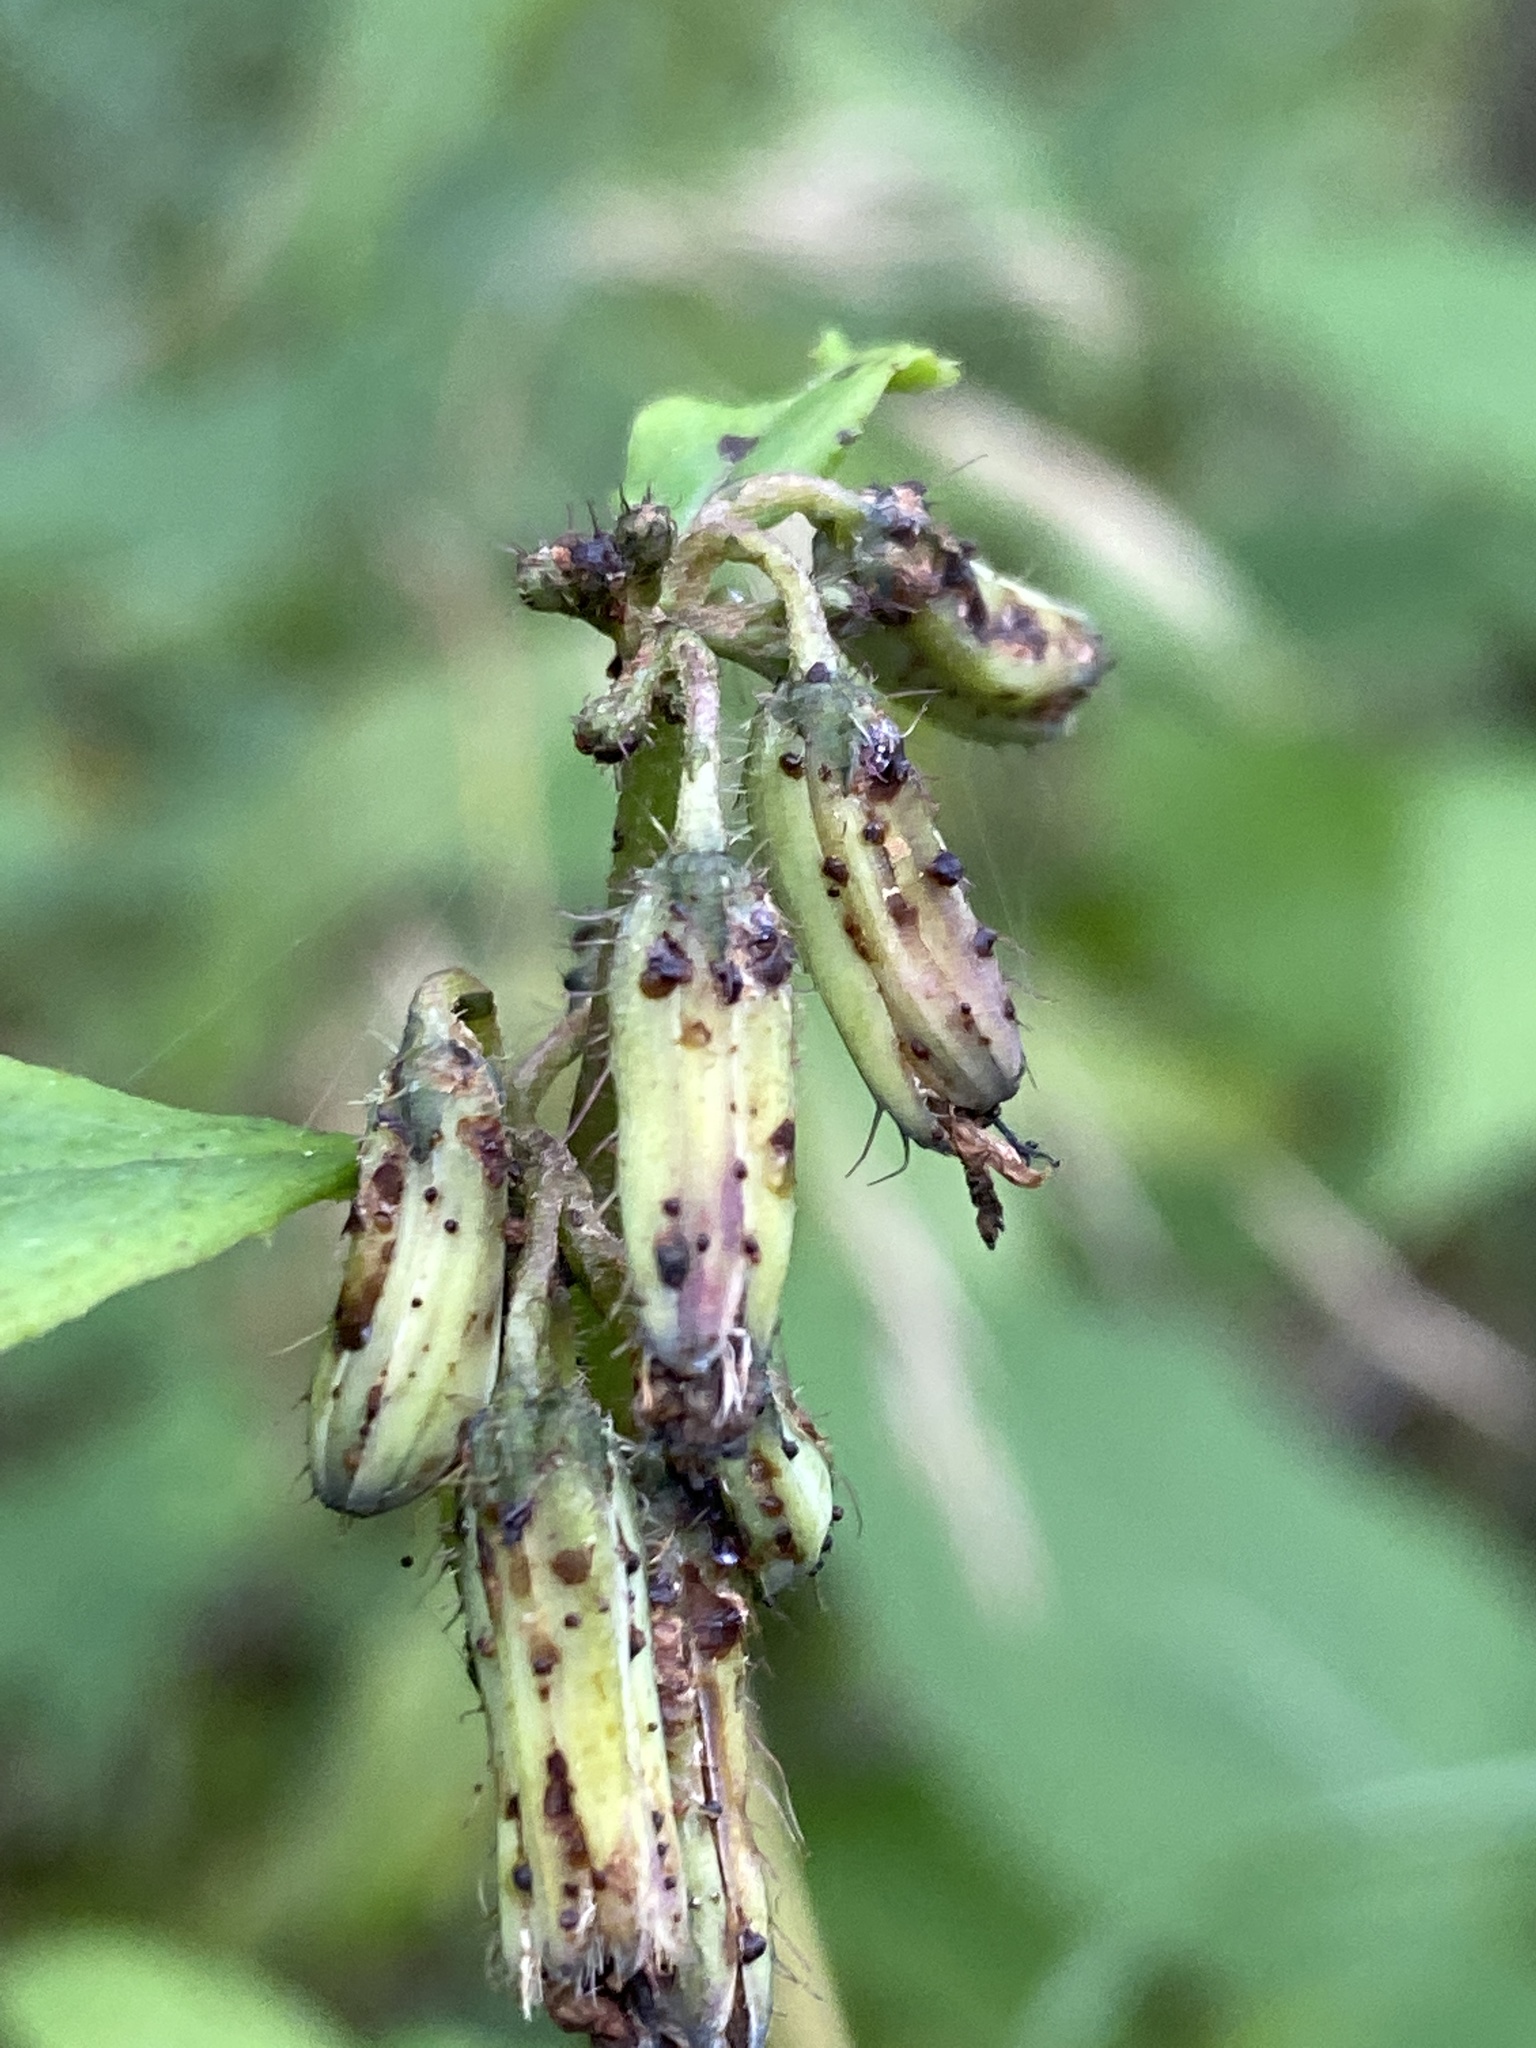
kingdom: Plantae
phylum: Tracheophyta
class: Magnoliopsida
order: Asterales
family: Asteraceae
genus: Nabalus
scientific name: Nabalus roanensis
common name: Roan mountain rattlesnakeroot
